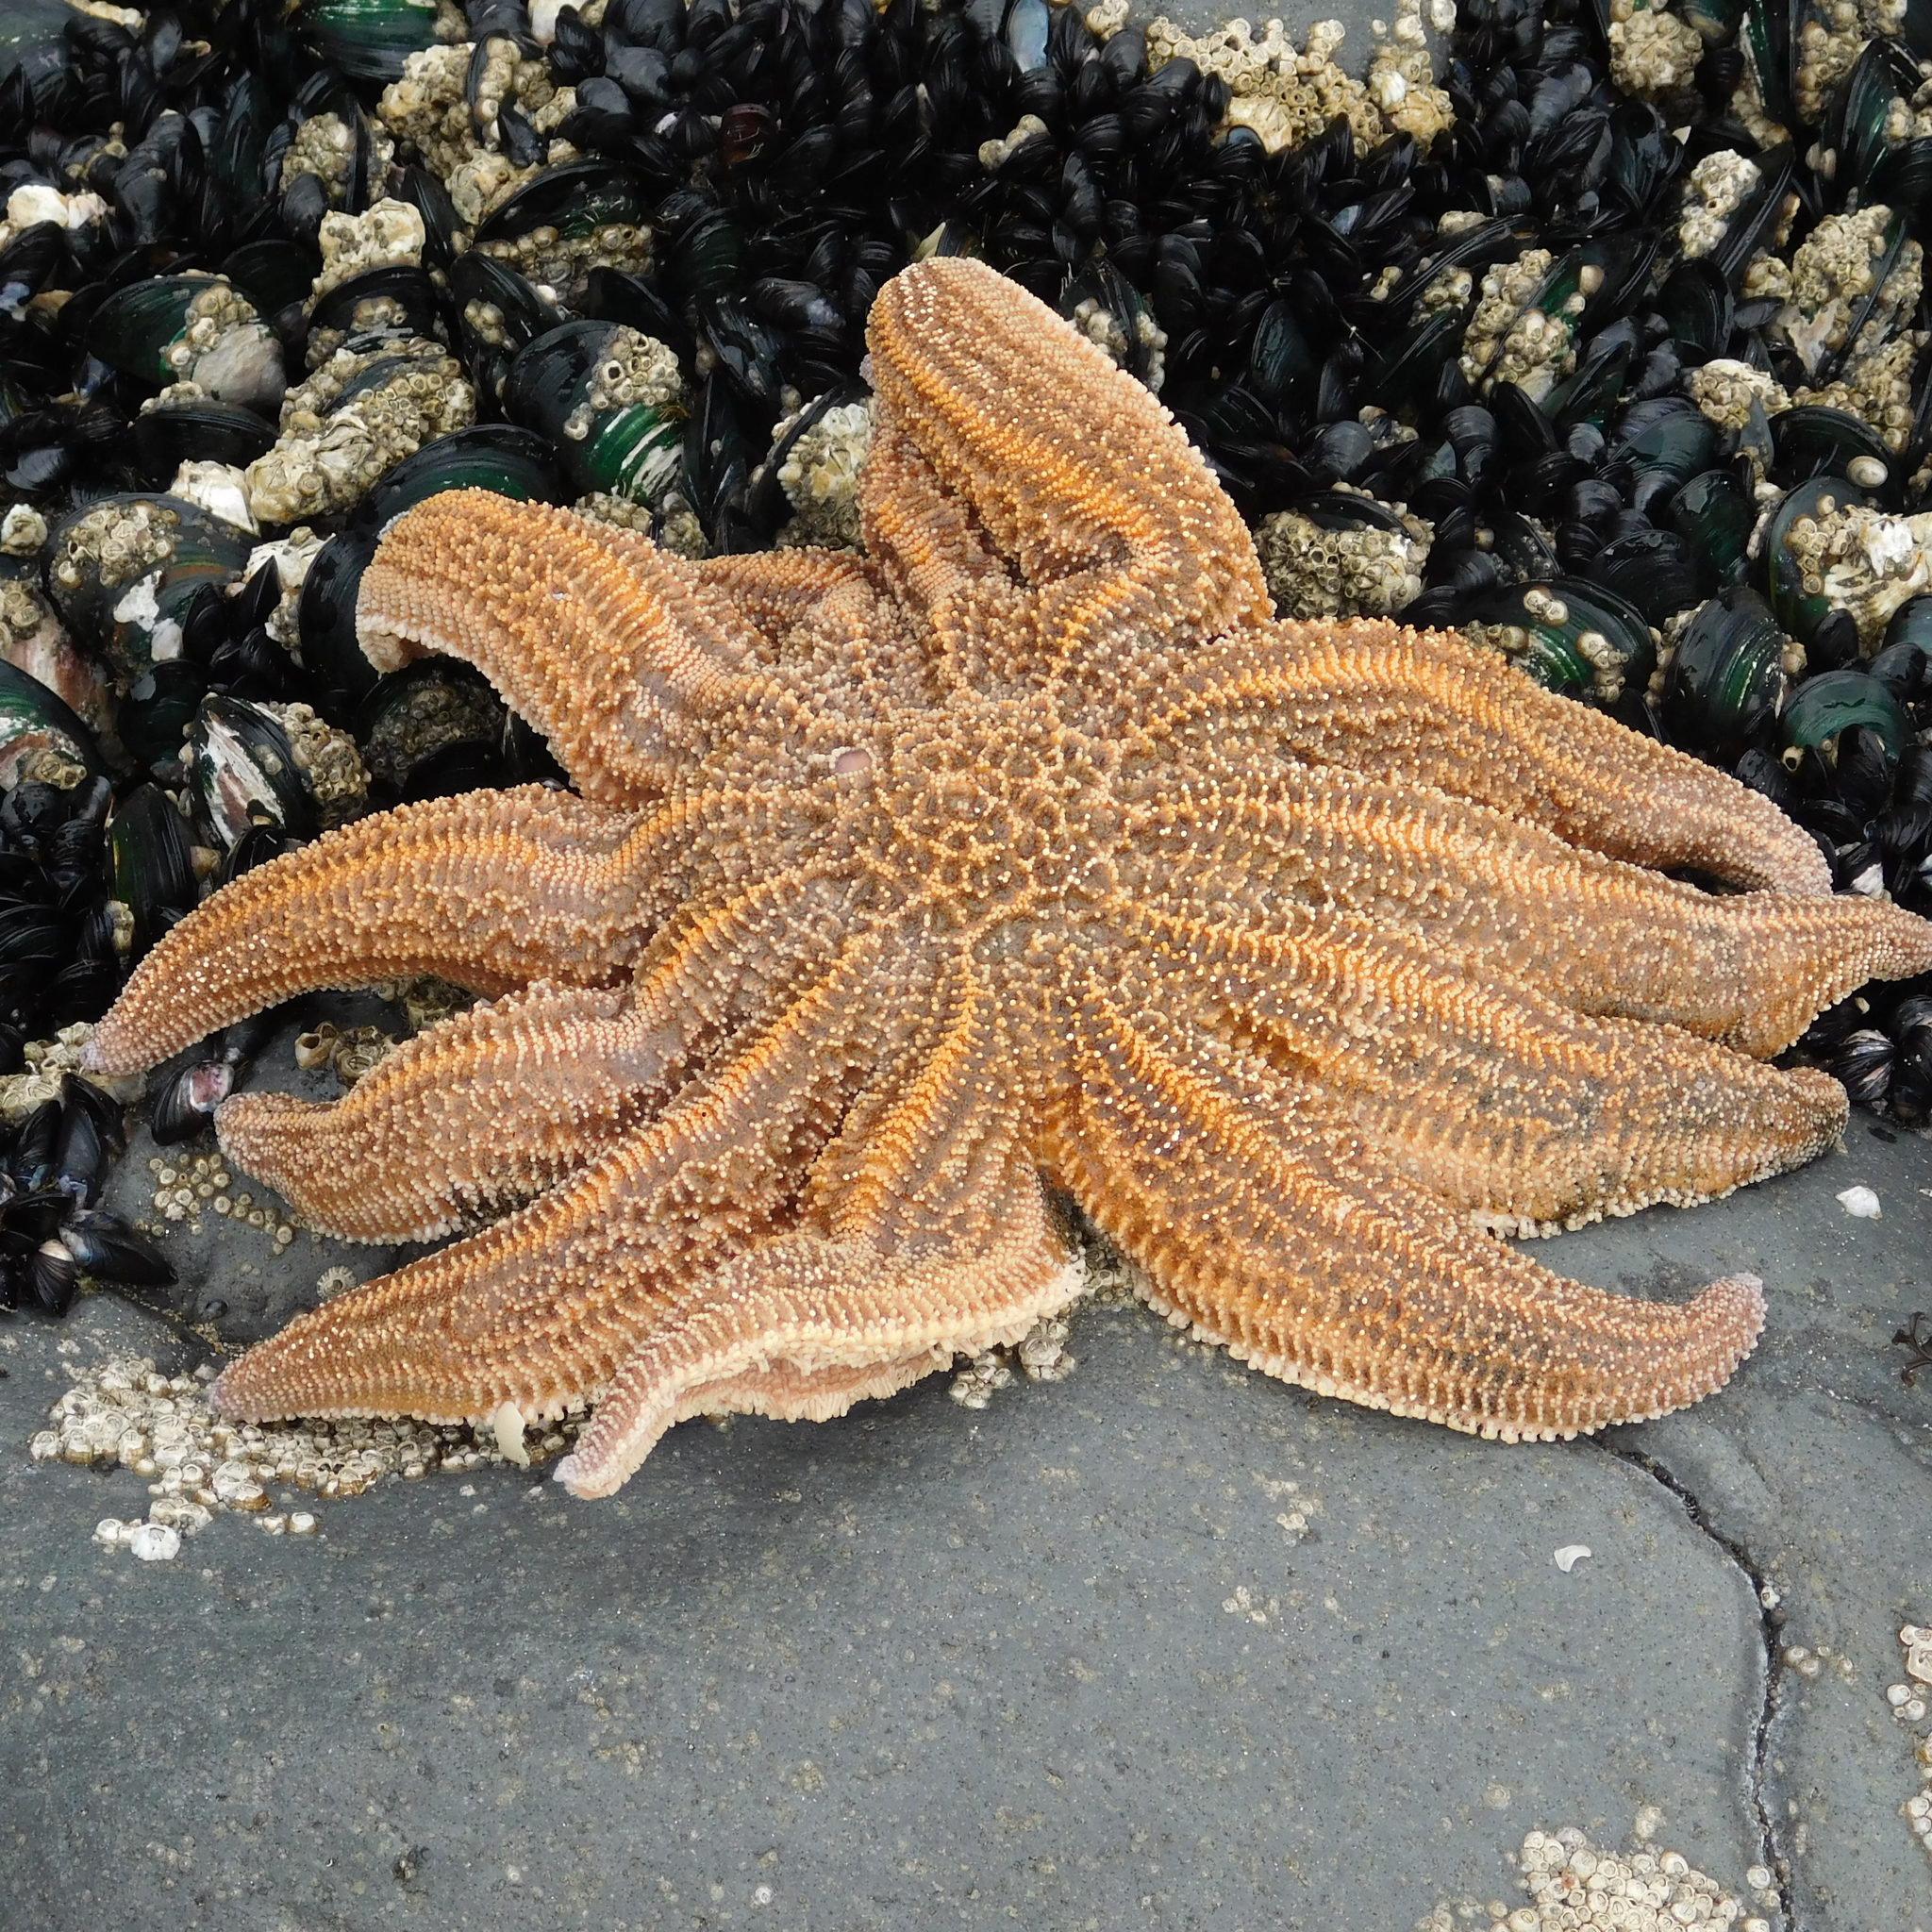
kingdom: Animalia
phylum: Echinodermata
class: Asteroidea
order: Forcipulatida
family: Stichasteridae
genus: Stichaster
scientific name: Stichaster australis
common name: Reef starfish
